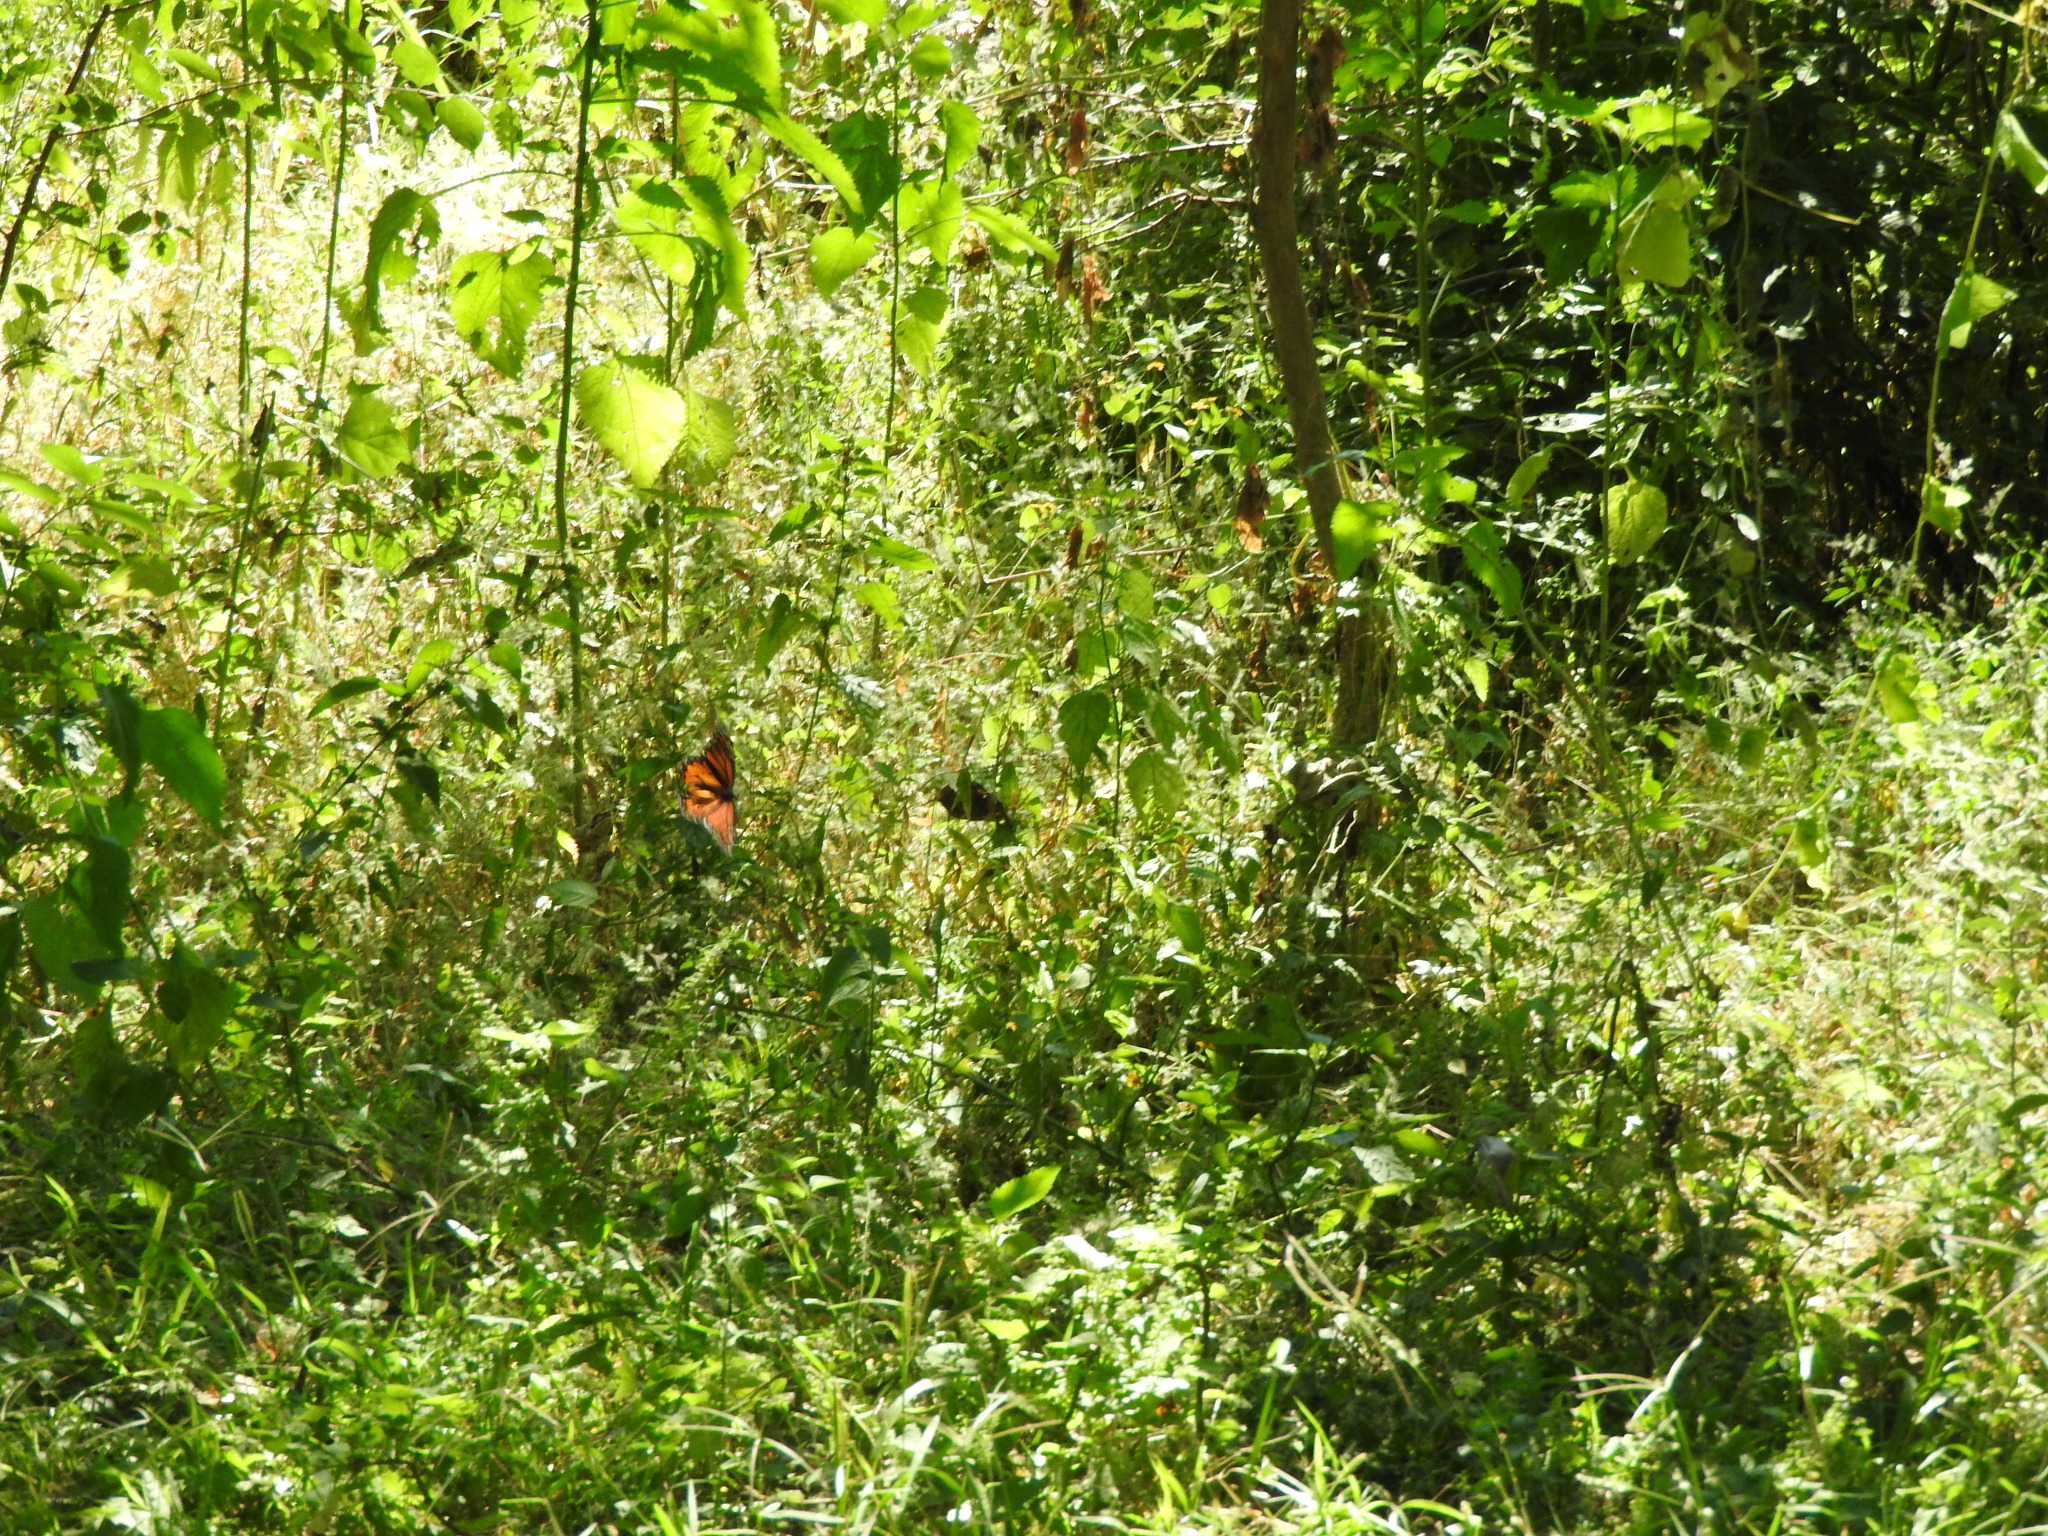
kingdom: Animalia
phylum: Arthropoda
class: Insecta
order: Lepidoptera
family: Nymphalidae
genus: Danaus
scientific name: Danaus plexippus
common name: Monarch
